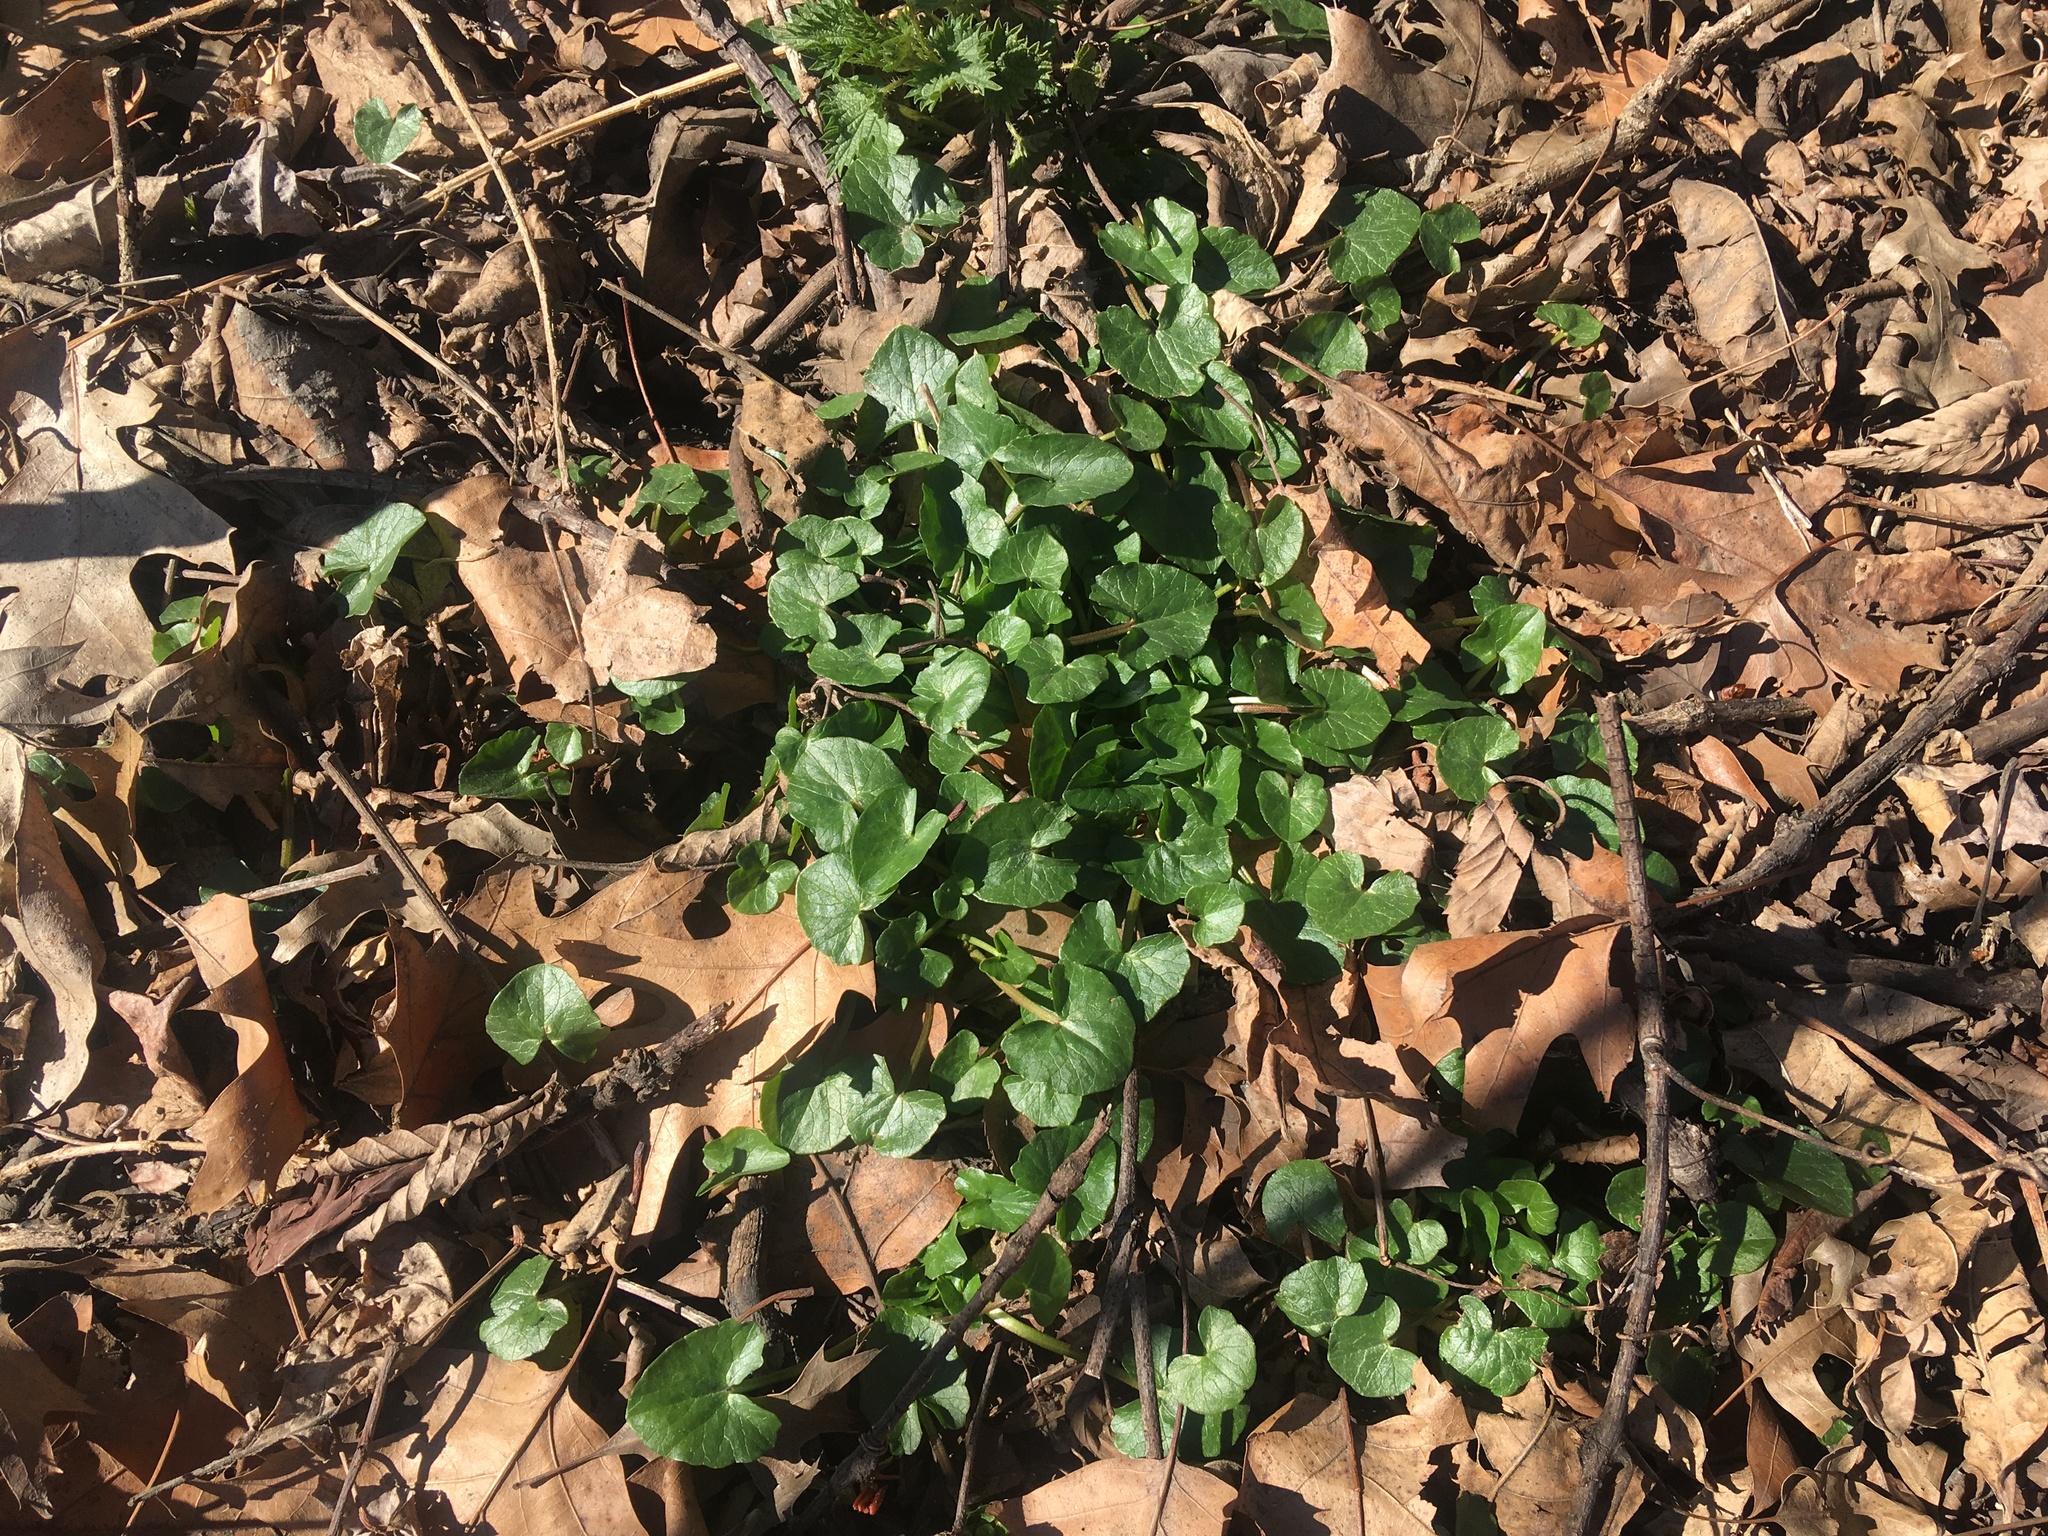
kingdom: Plantae
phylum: Tracheophyta
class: Magnoliopsida
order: Ranunculales
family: Ranunculaceae
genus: Ficaria
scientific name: Ficaria verna
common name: Lesser celandine
